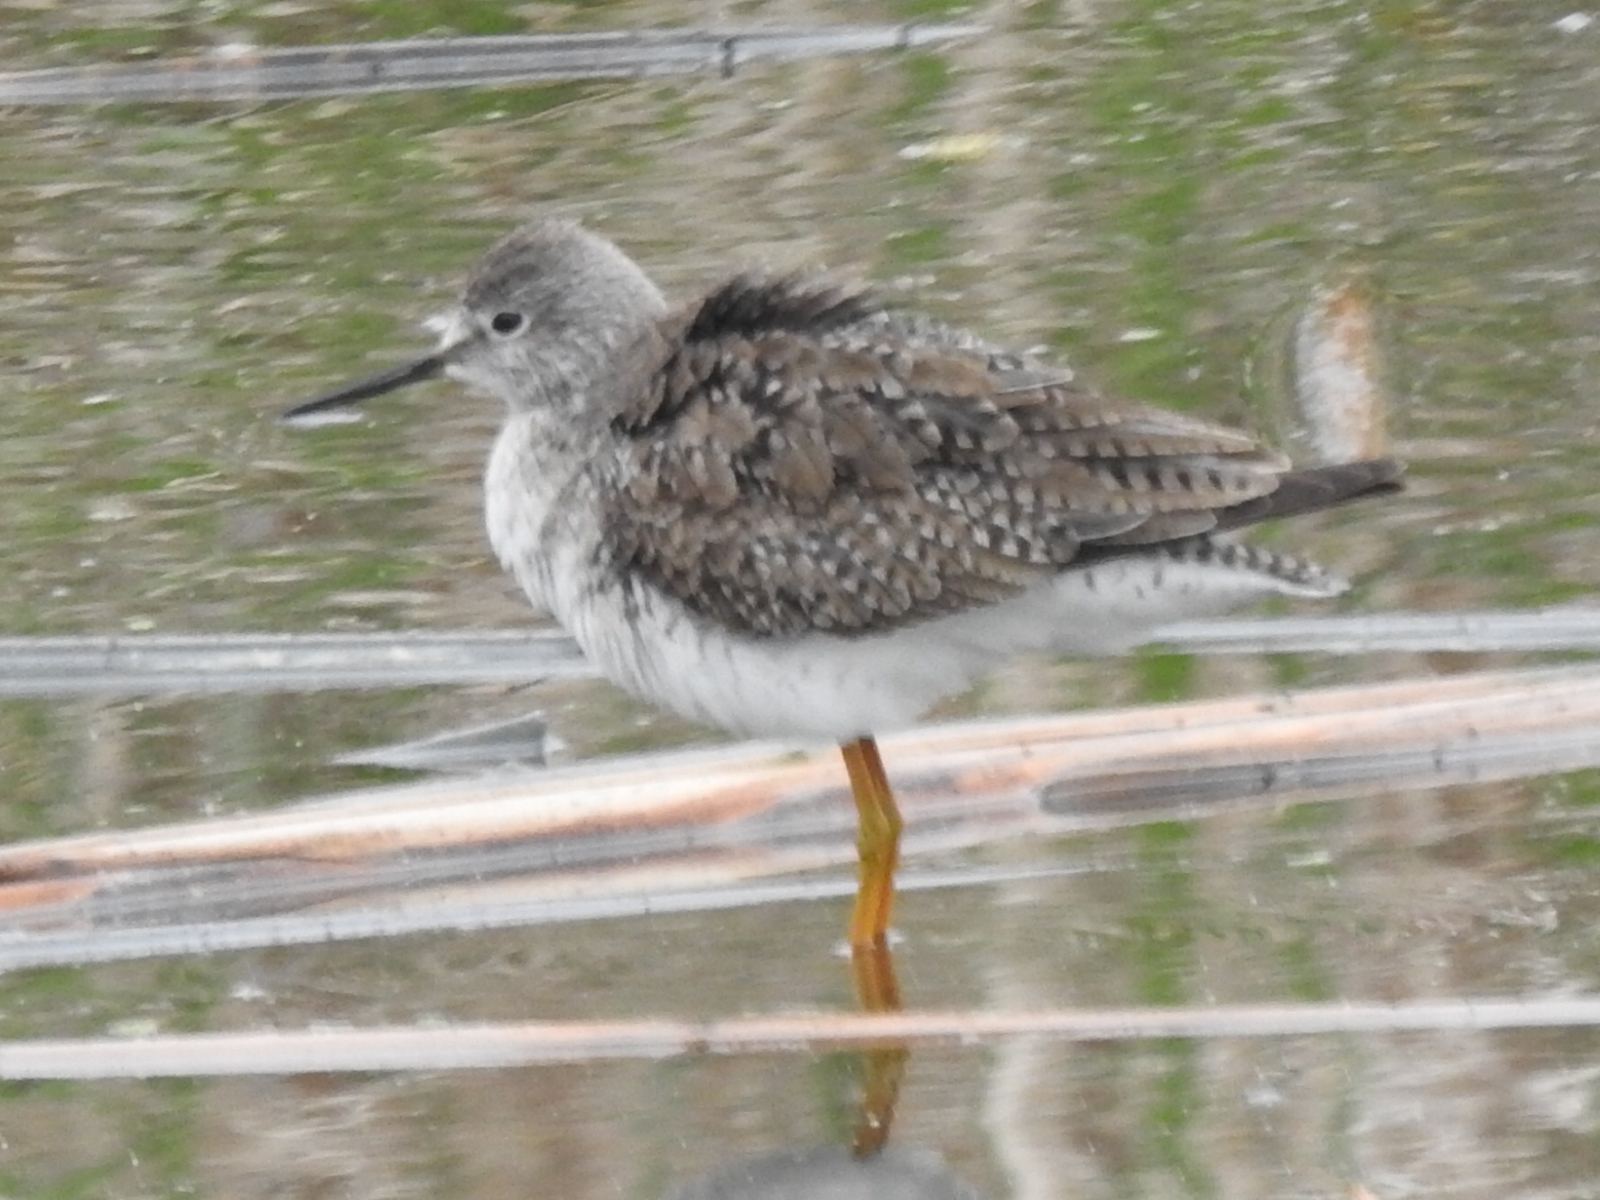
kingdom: Animalia
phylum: Chordata
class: Aves
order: Charadriiformes
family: Scolopacidae
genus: Tringa
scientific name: Tringa flavipes
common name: Lesser yellowlegs
